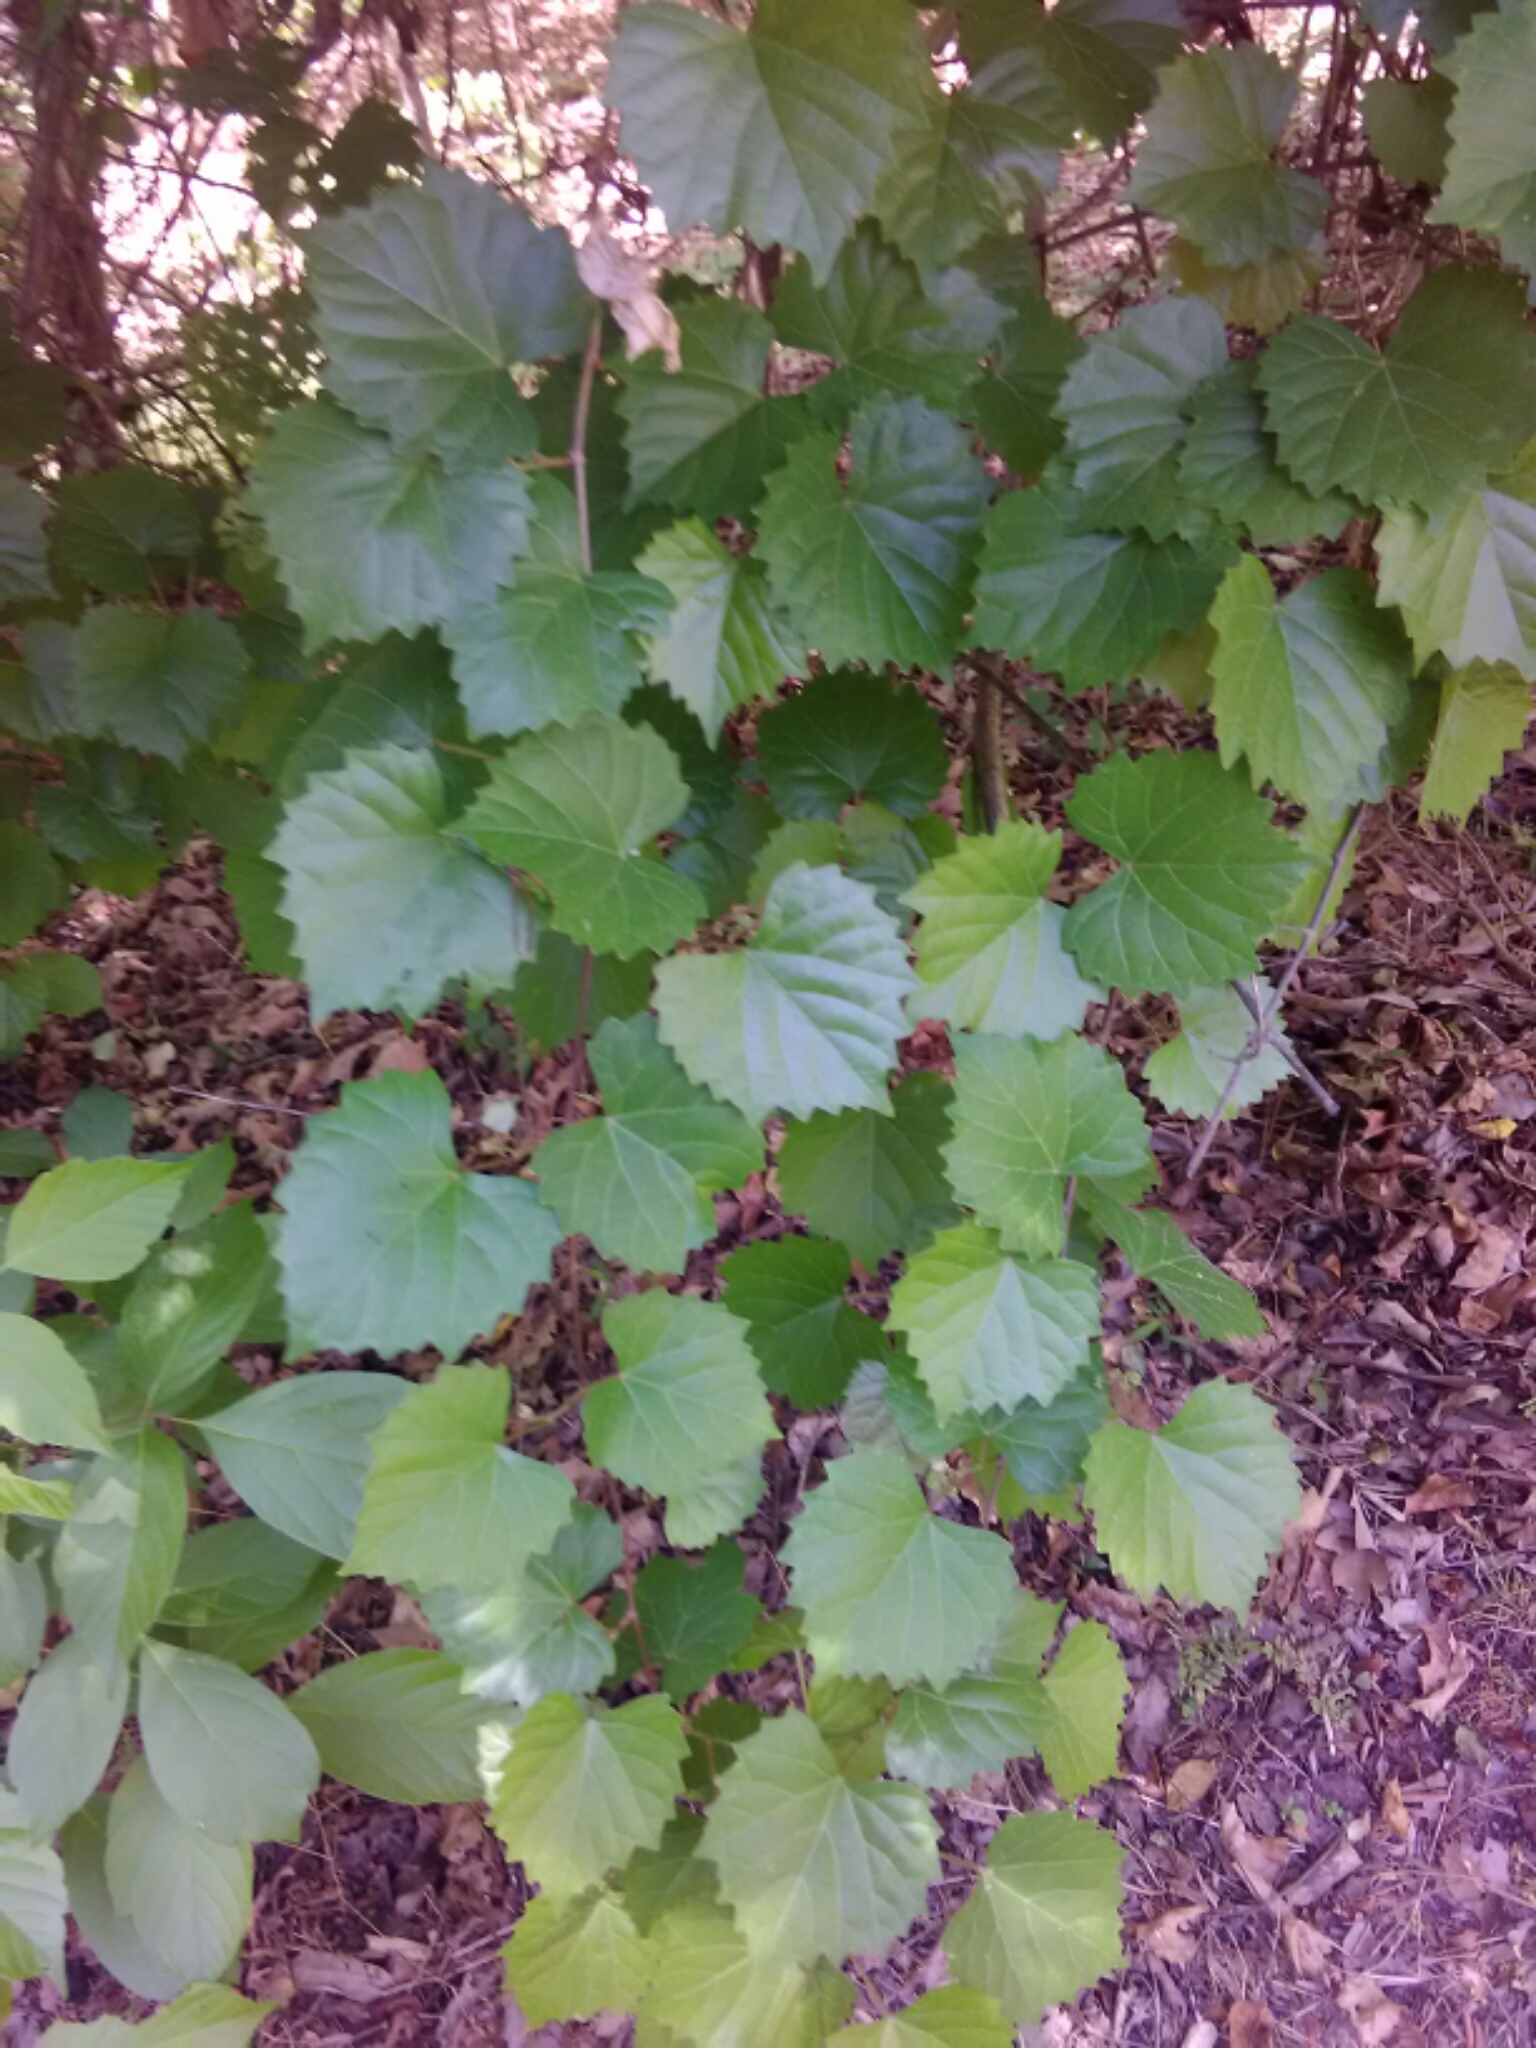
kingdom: Plantae
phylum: Tracheophyta
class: Magnoliopsida
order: Vitales
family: Vitaceae
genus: Vitis
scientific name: Vitis rotundifolia
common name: Muscadine grape
